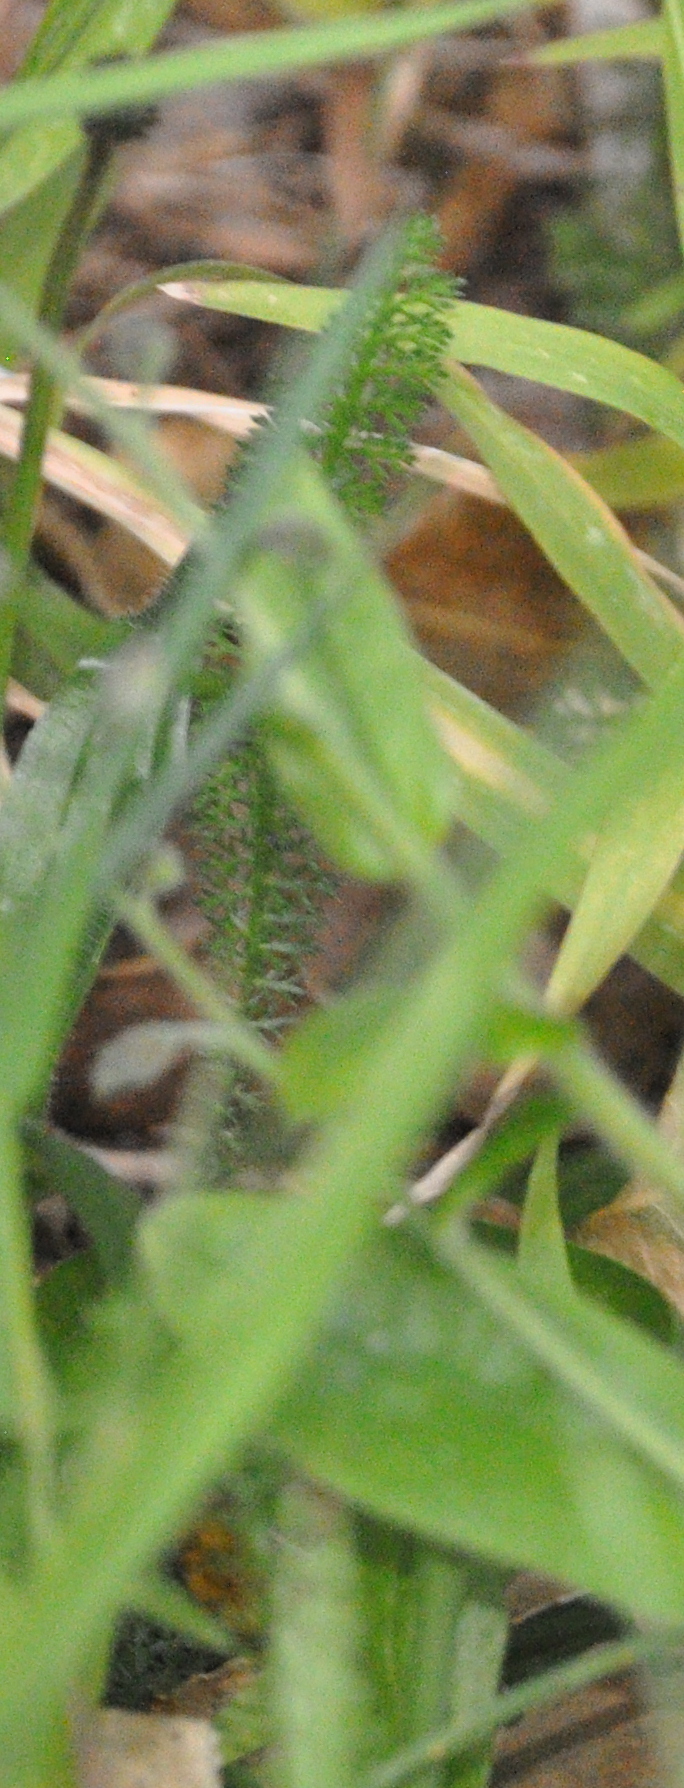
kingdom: Plantae
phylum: Tracheophyta
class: Magnoliopsida
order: Asterales
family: Asteraceae
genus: Achillea
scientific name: Achillea millefolium
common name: Yarrow
